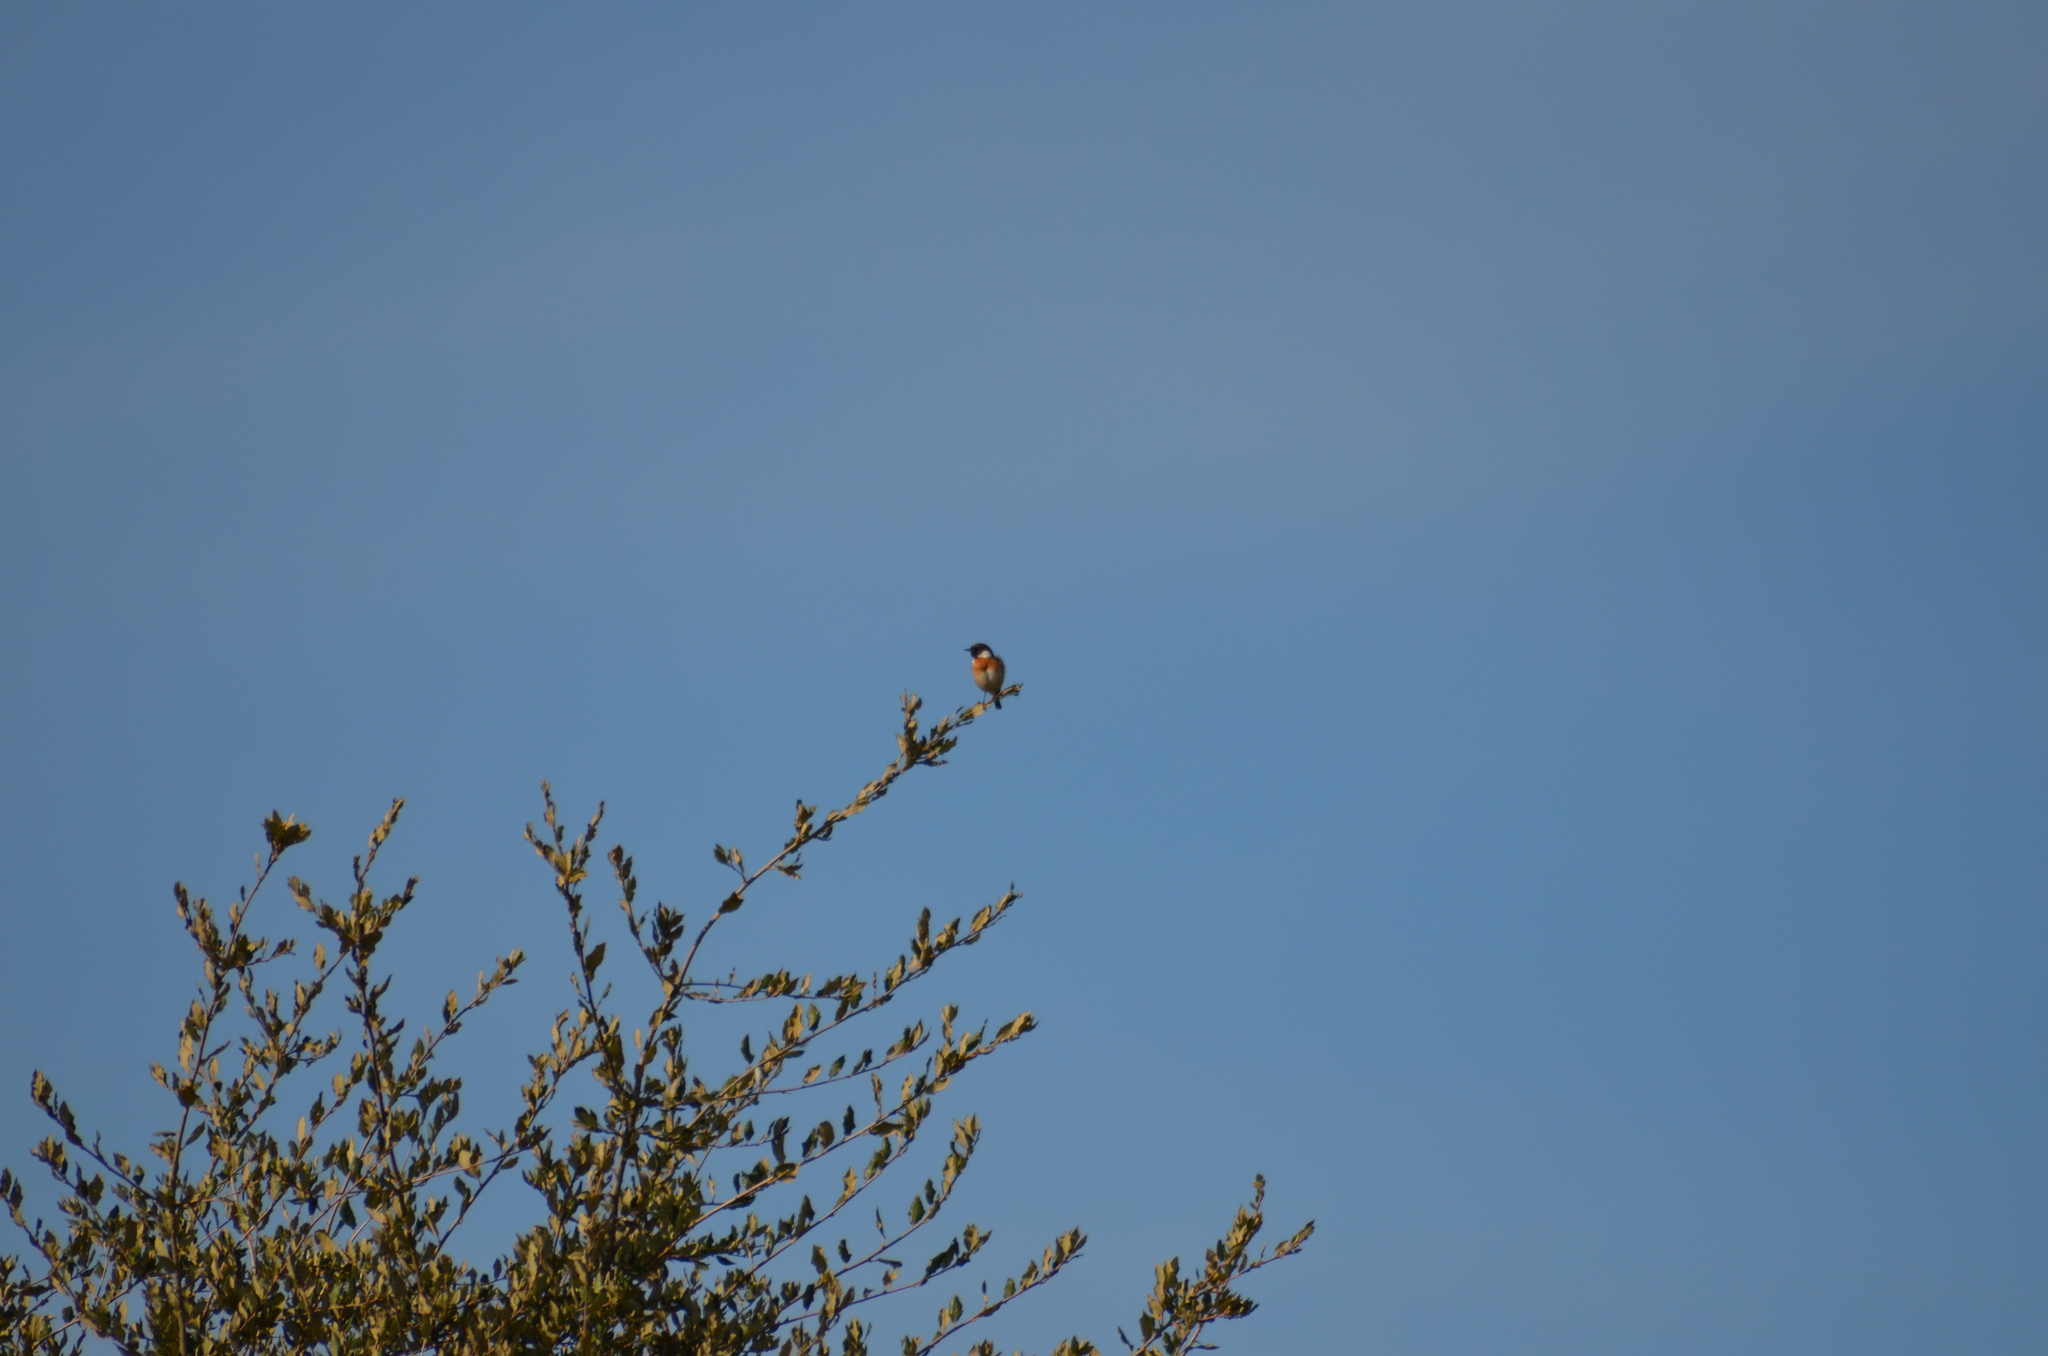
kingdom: Animalia
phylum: Chordata
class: Aves
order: Passeriformes
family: Muscicapidae
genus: Saxicola
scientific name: Saxicola rubicola
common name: European stonechat
